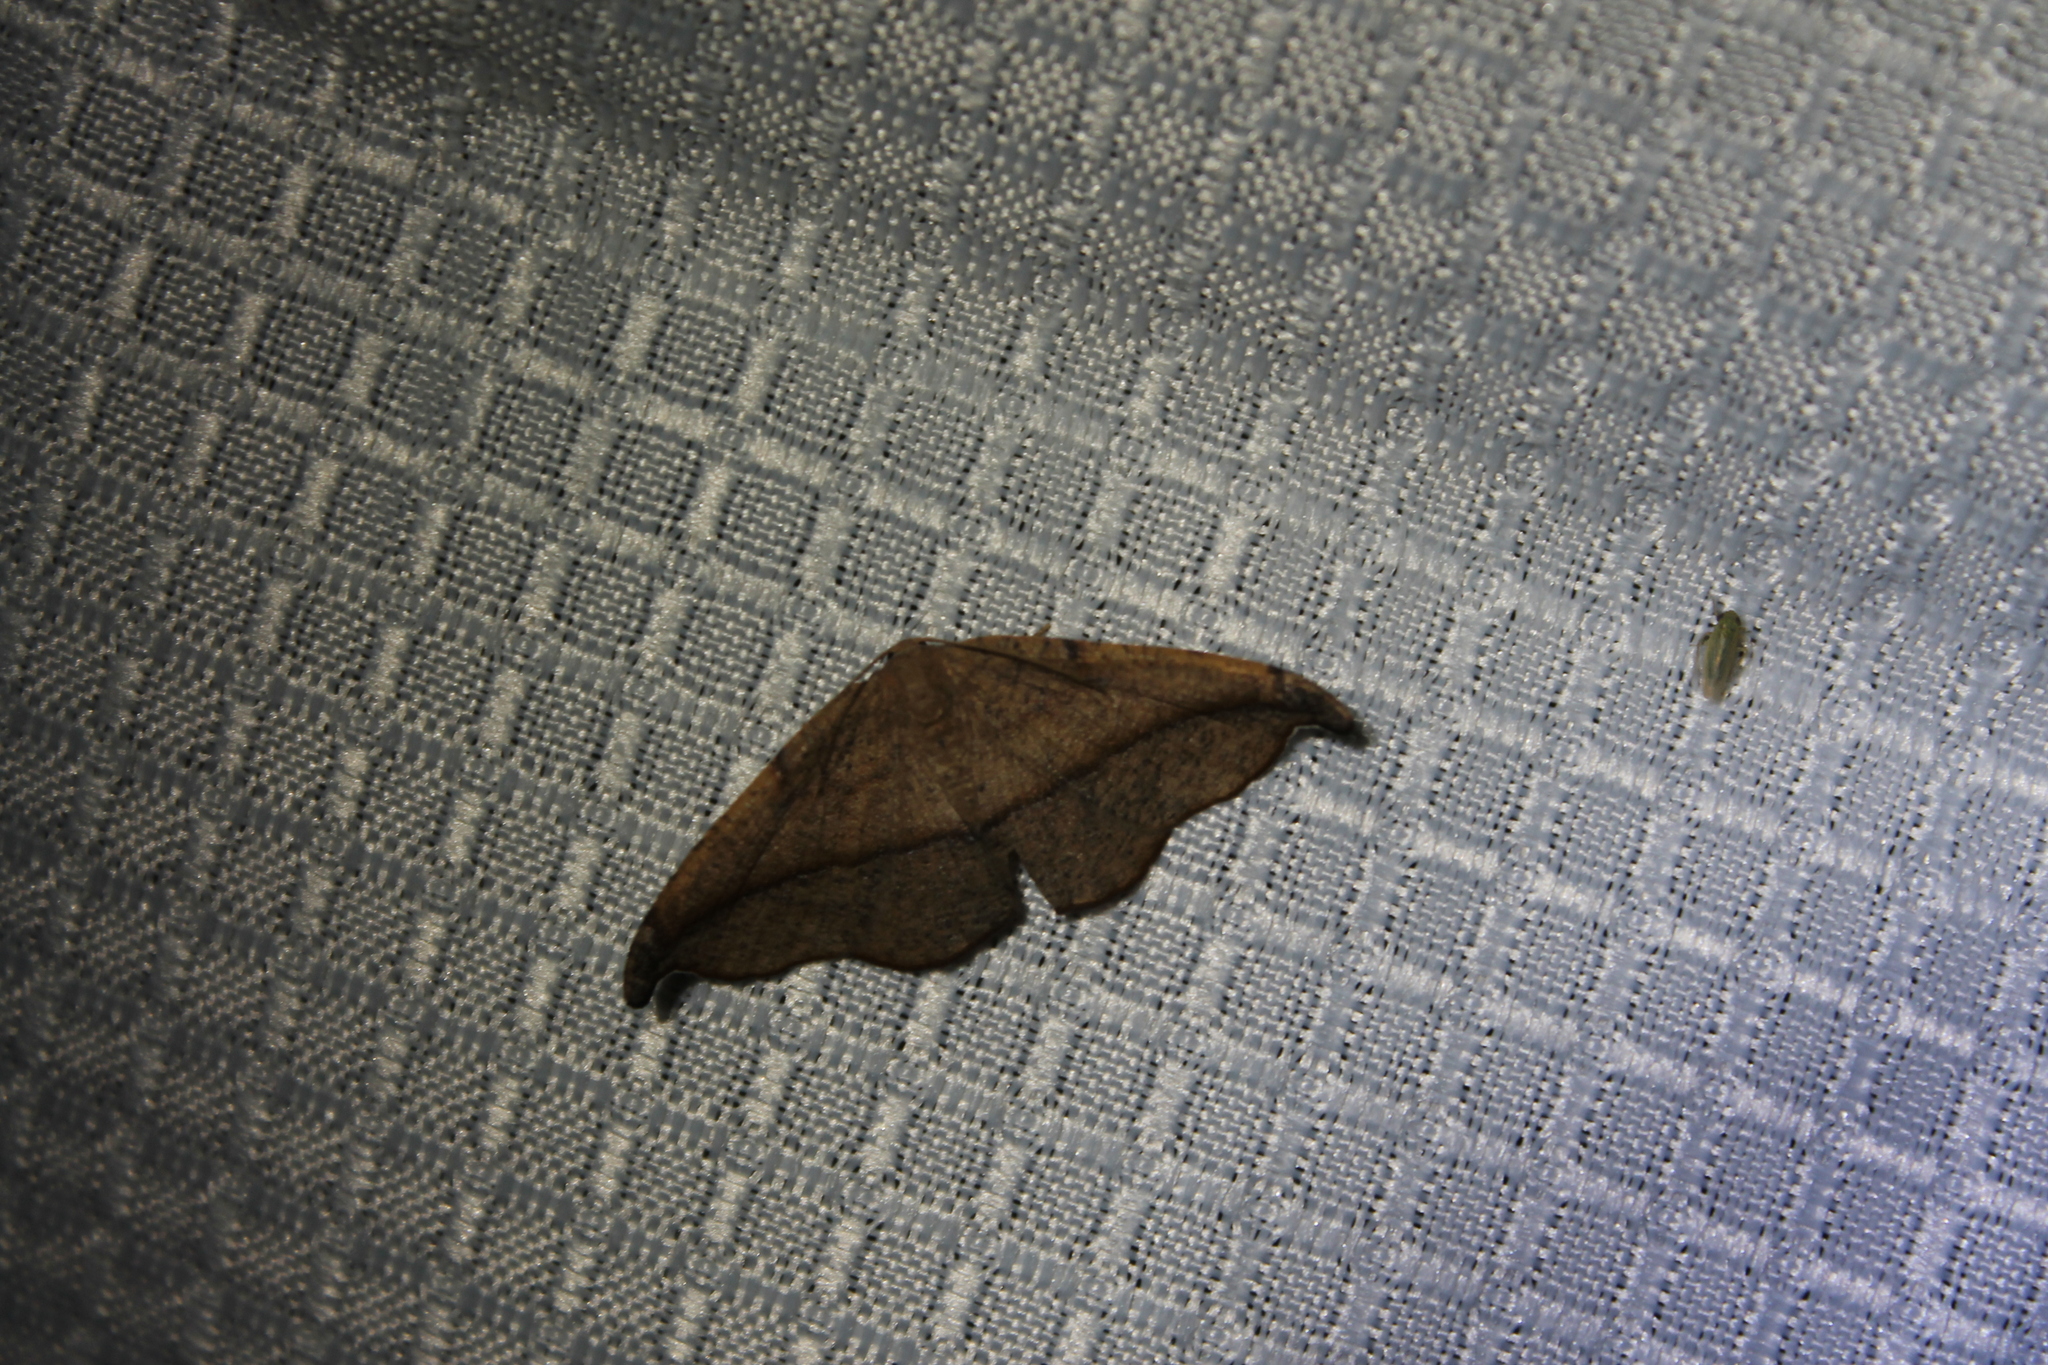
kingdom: Animalia
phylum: Arthropoda
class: Insecta
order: Lepidoptera
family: Geometridae
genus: Patalene
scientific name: Patalene olyzonaria
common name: Juniper geometer moth
